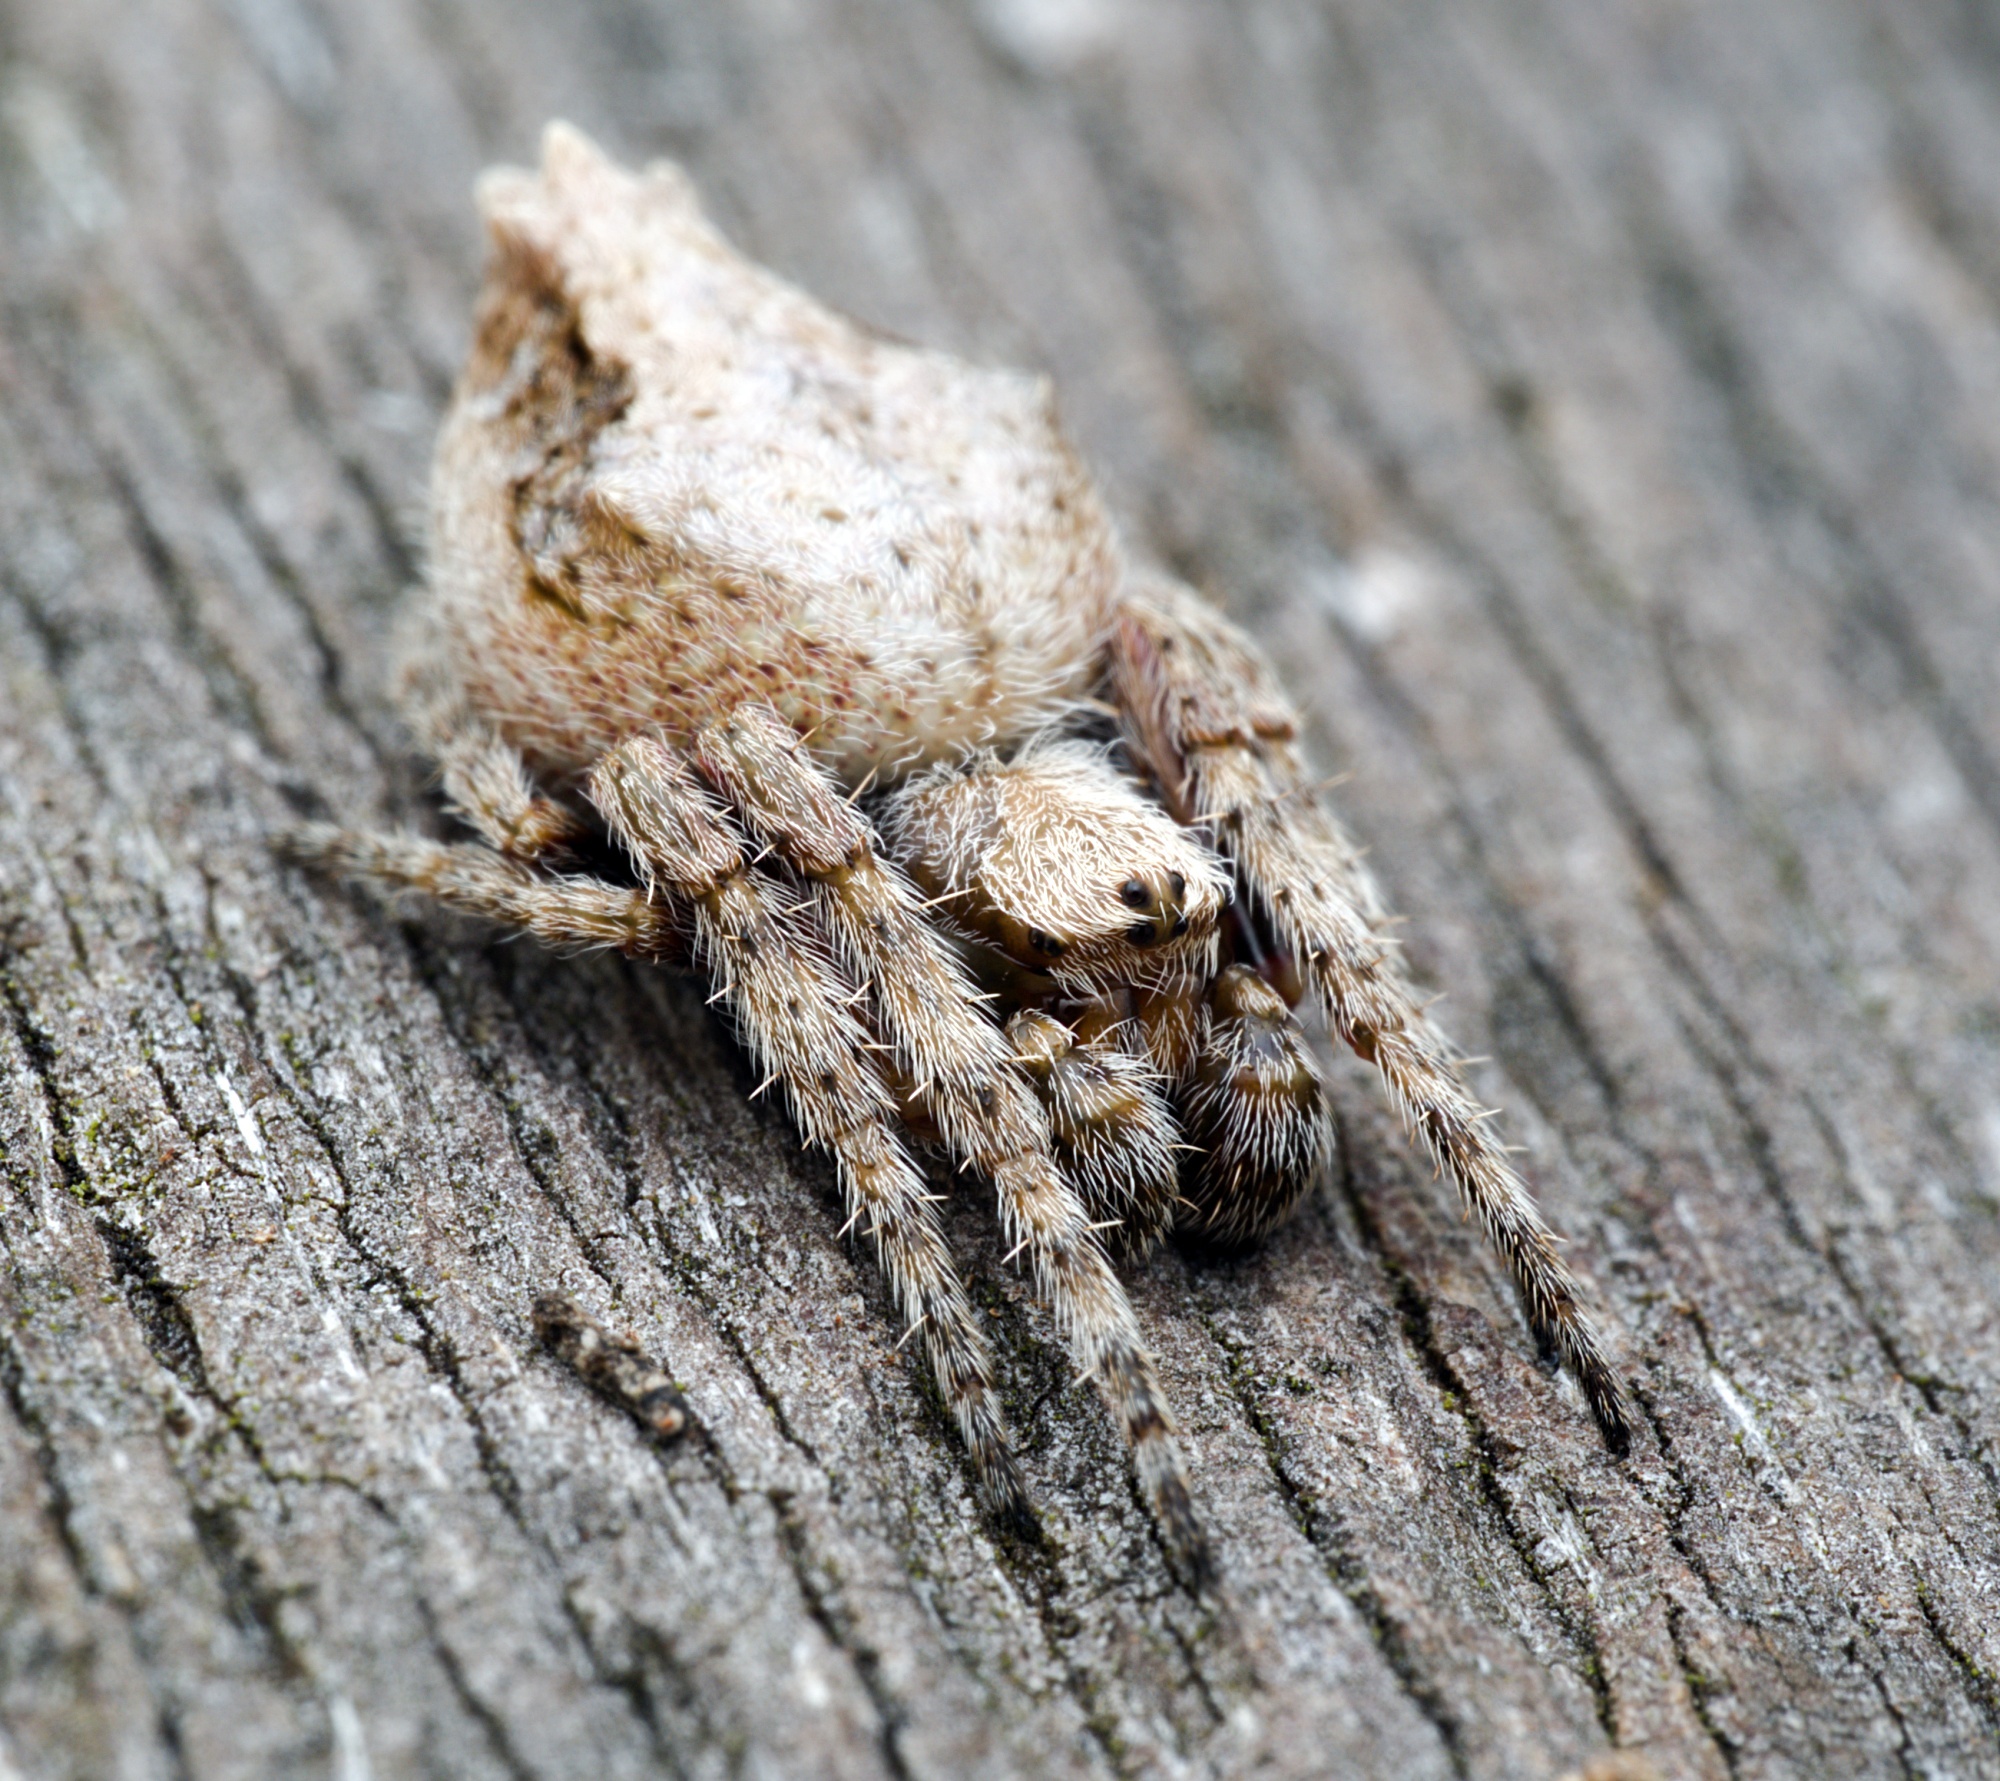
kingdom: Animalia
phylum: Arthropoda
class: Arachnida
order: Araneae
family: Araneidae
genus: Eriophora
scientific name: Eriophora pustulosa
